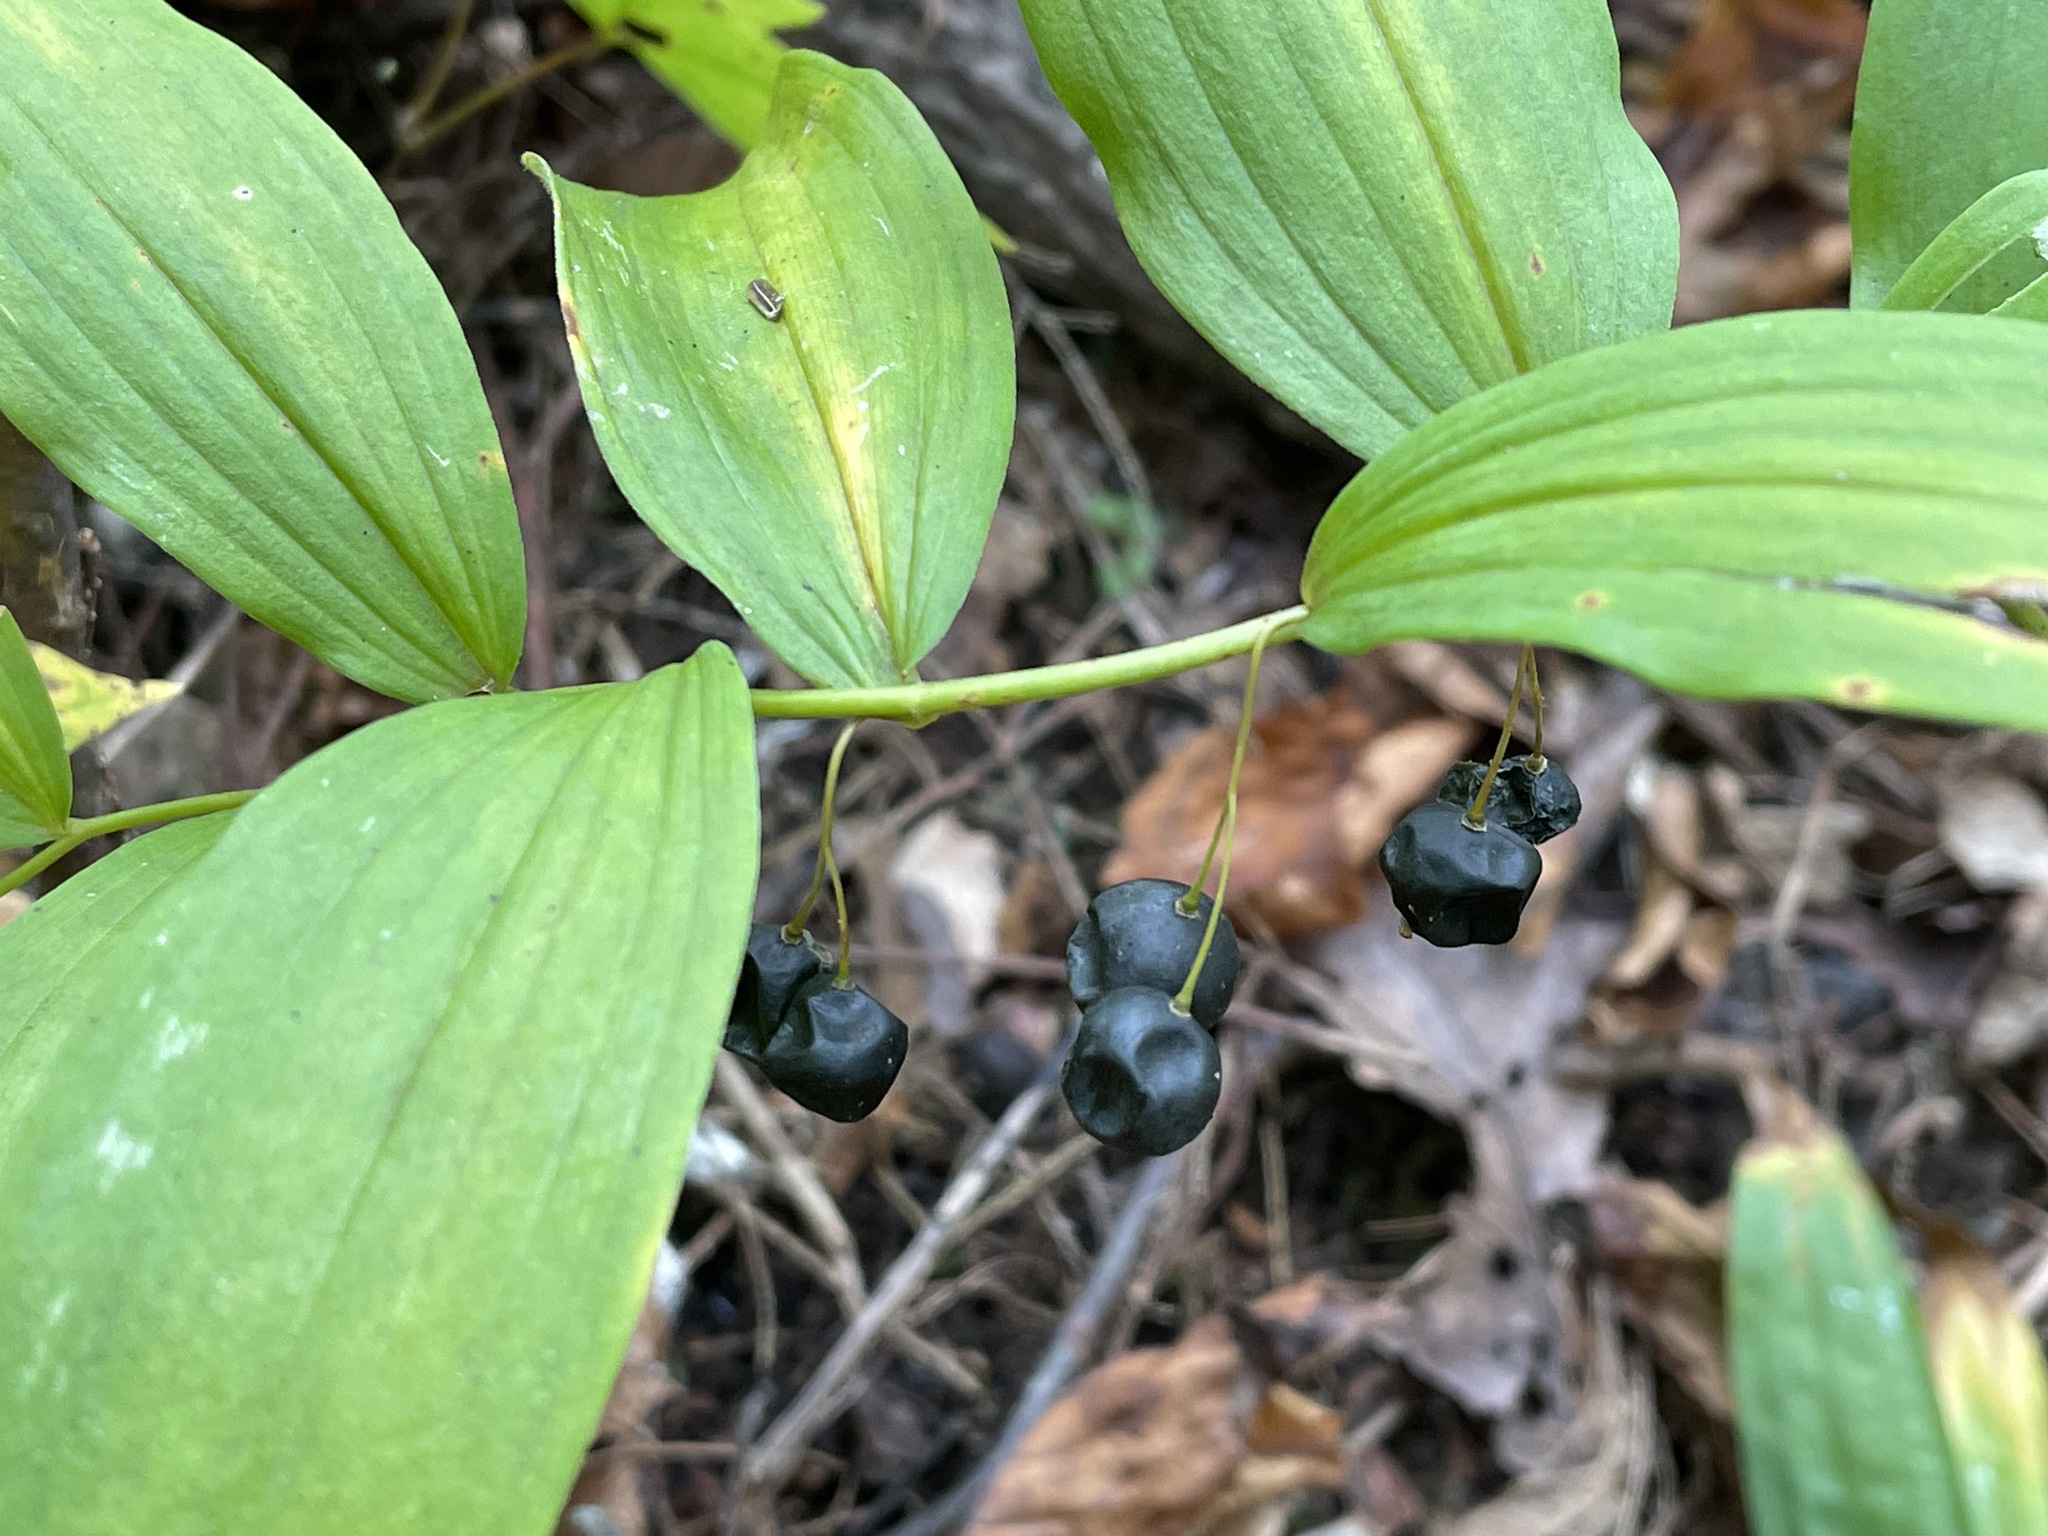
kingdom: Plantae
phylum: Tracheophyta
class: Liliopsida
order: Asparagales
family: Asparagaceae
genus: Polygonatum
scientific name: Polygonatum pubescens
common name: Downy solomon's seal
